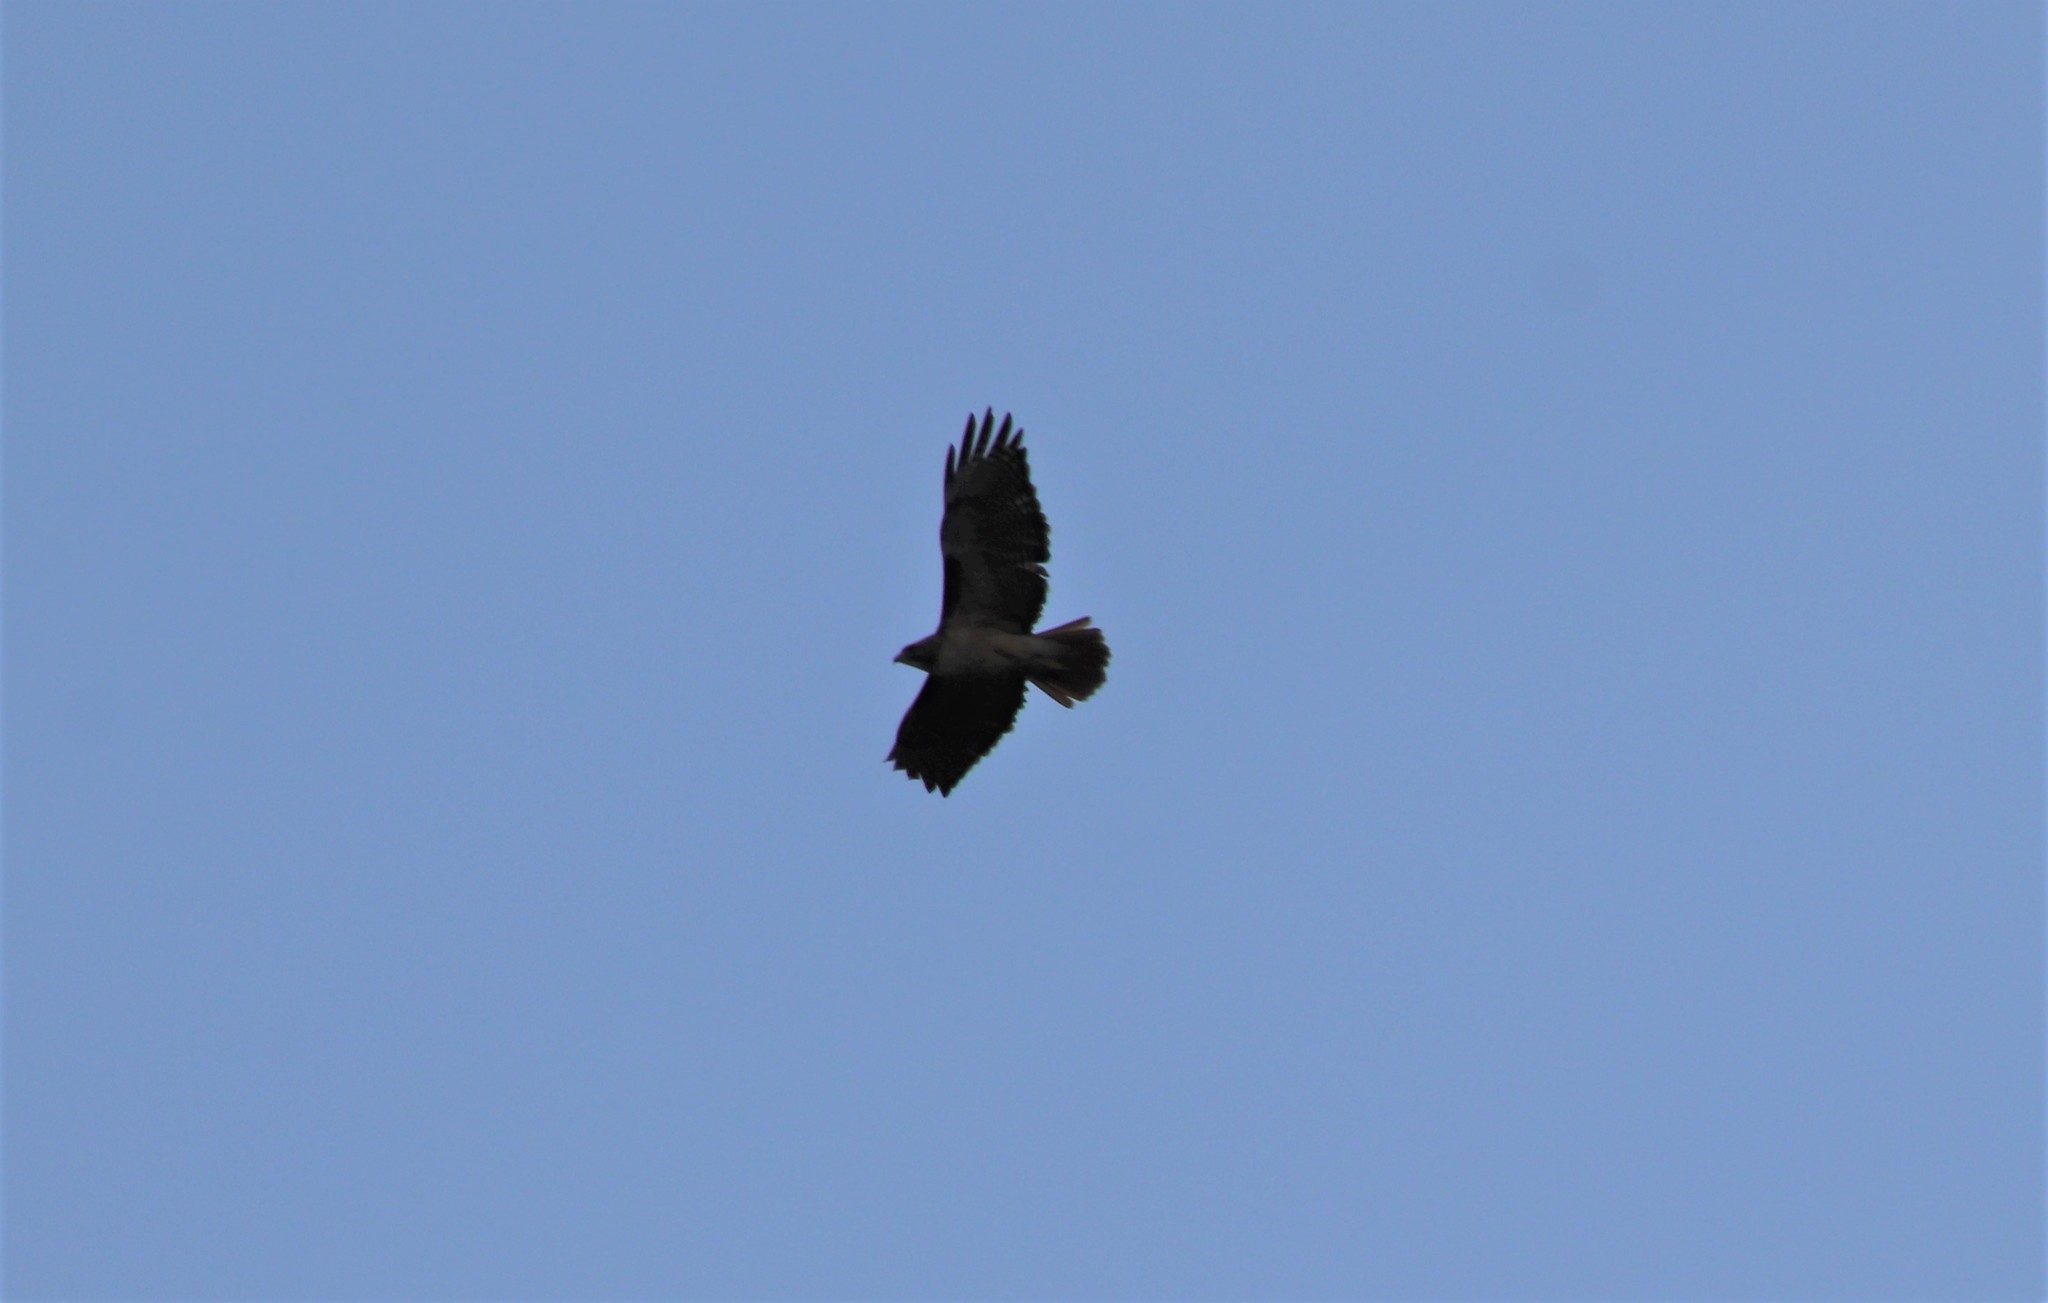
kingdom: Animalia
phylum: Chordata
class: Aves
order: Accipitriformes
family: Accipitridae
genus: Buteo
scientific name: Buteo jamaicensis
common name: Red-tailed hawk
